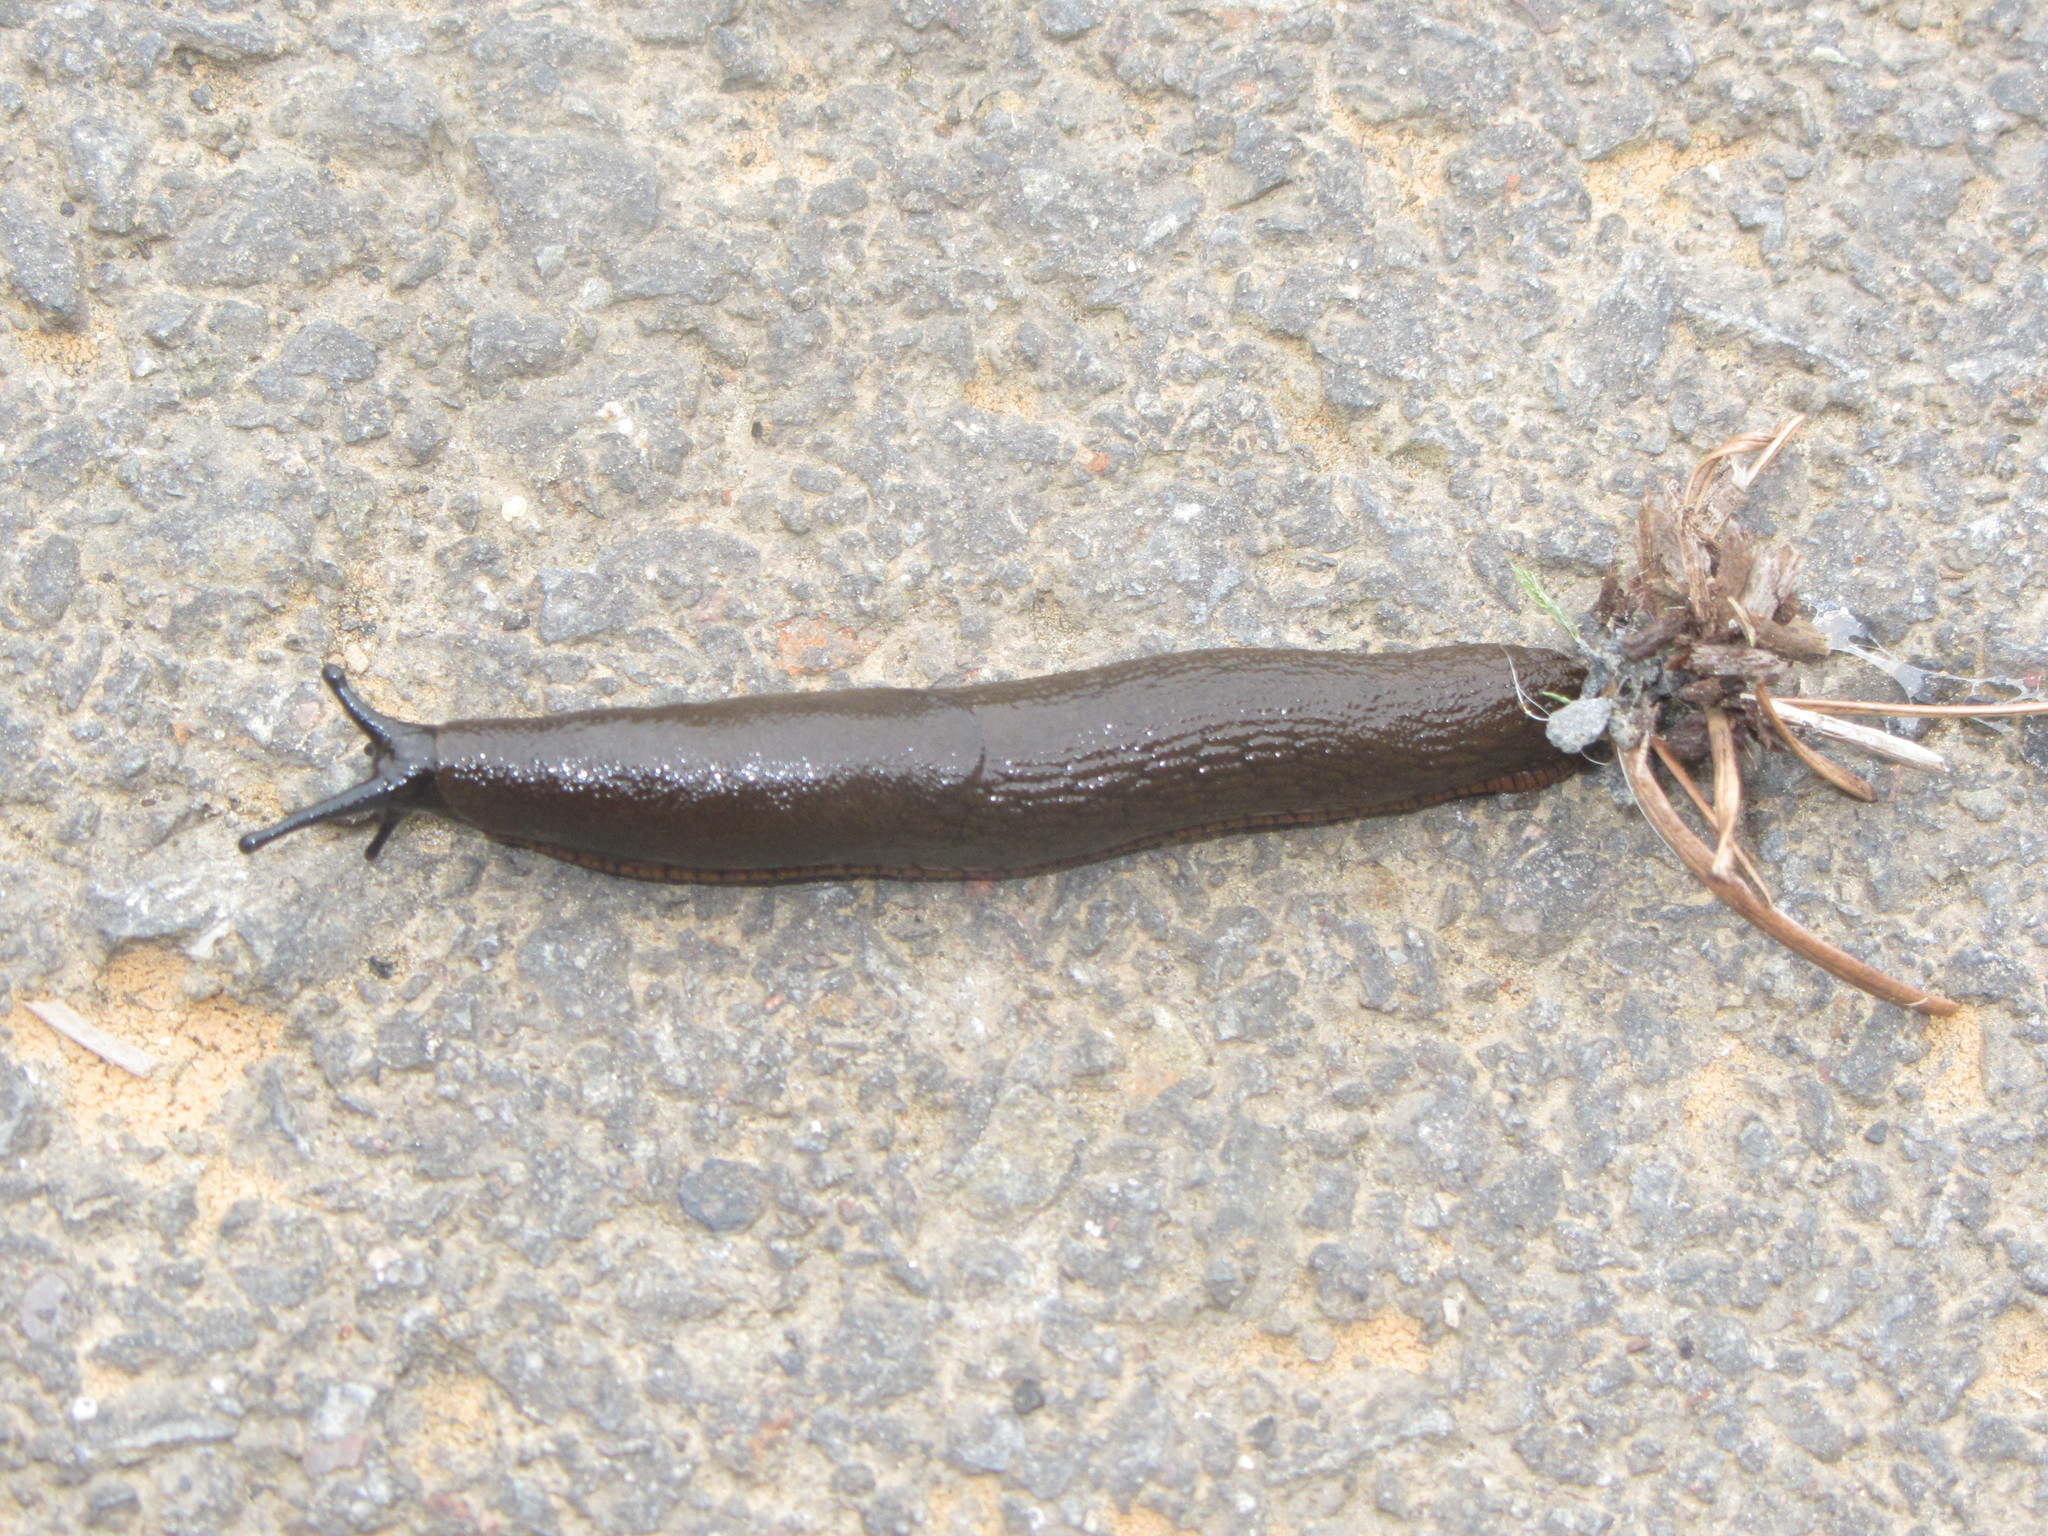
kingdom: Animalia
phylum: Mollusca
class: Gastropoda
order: Stylommatophora
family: Arionidae
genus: Arion
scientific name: Arion rufus
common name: Chocolate arion
